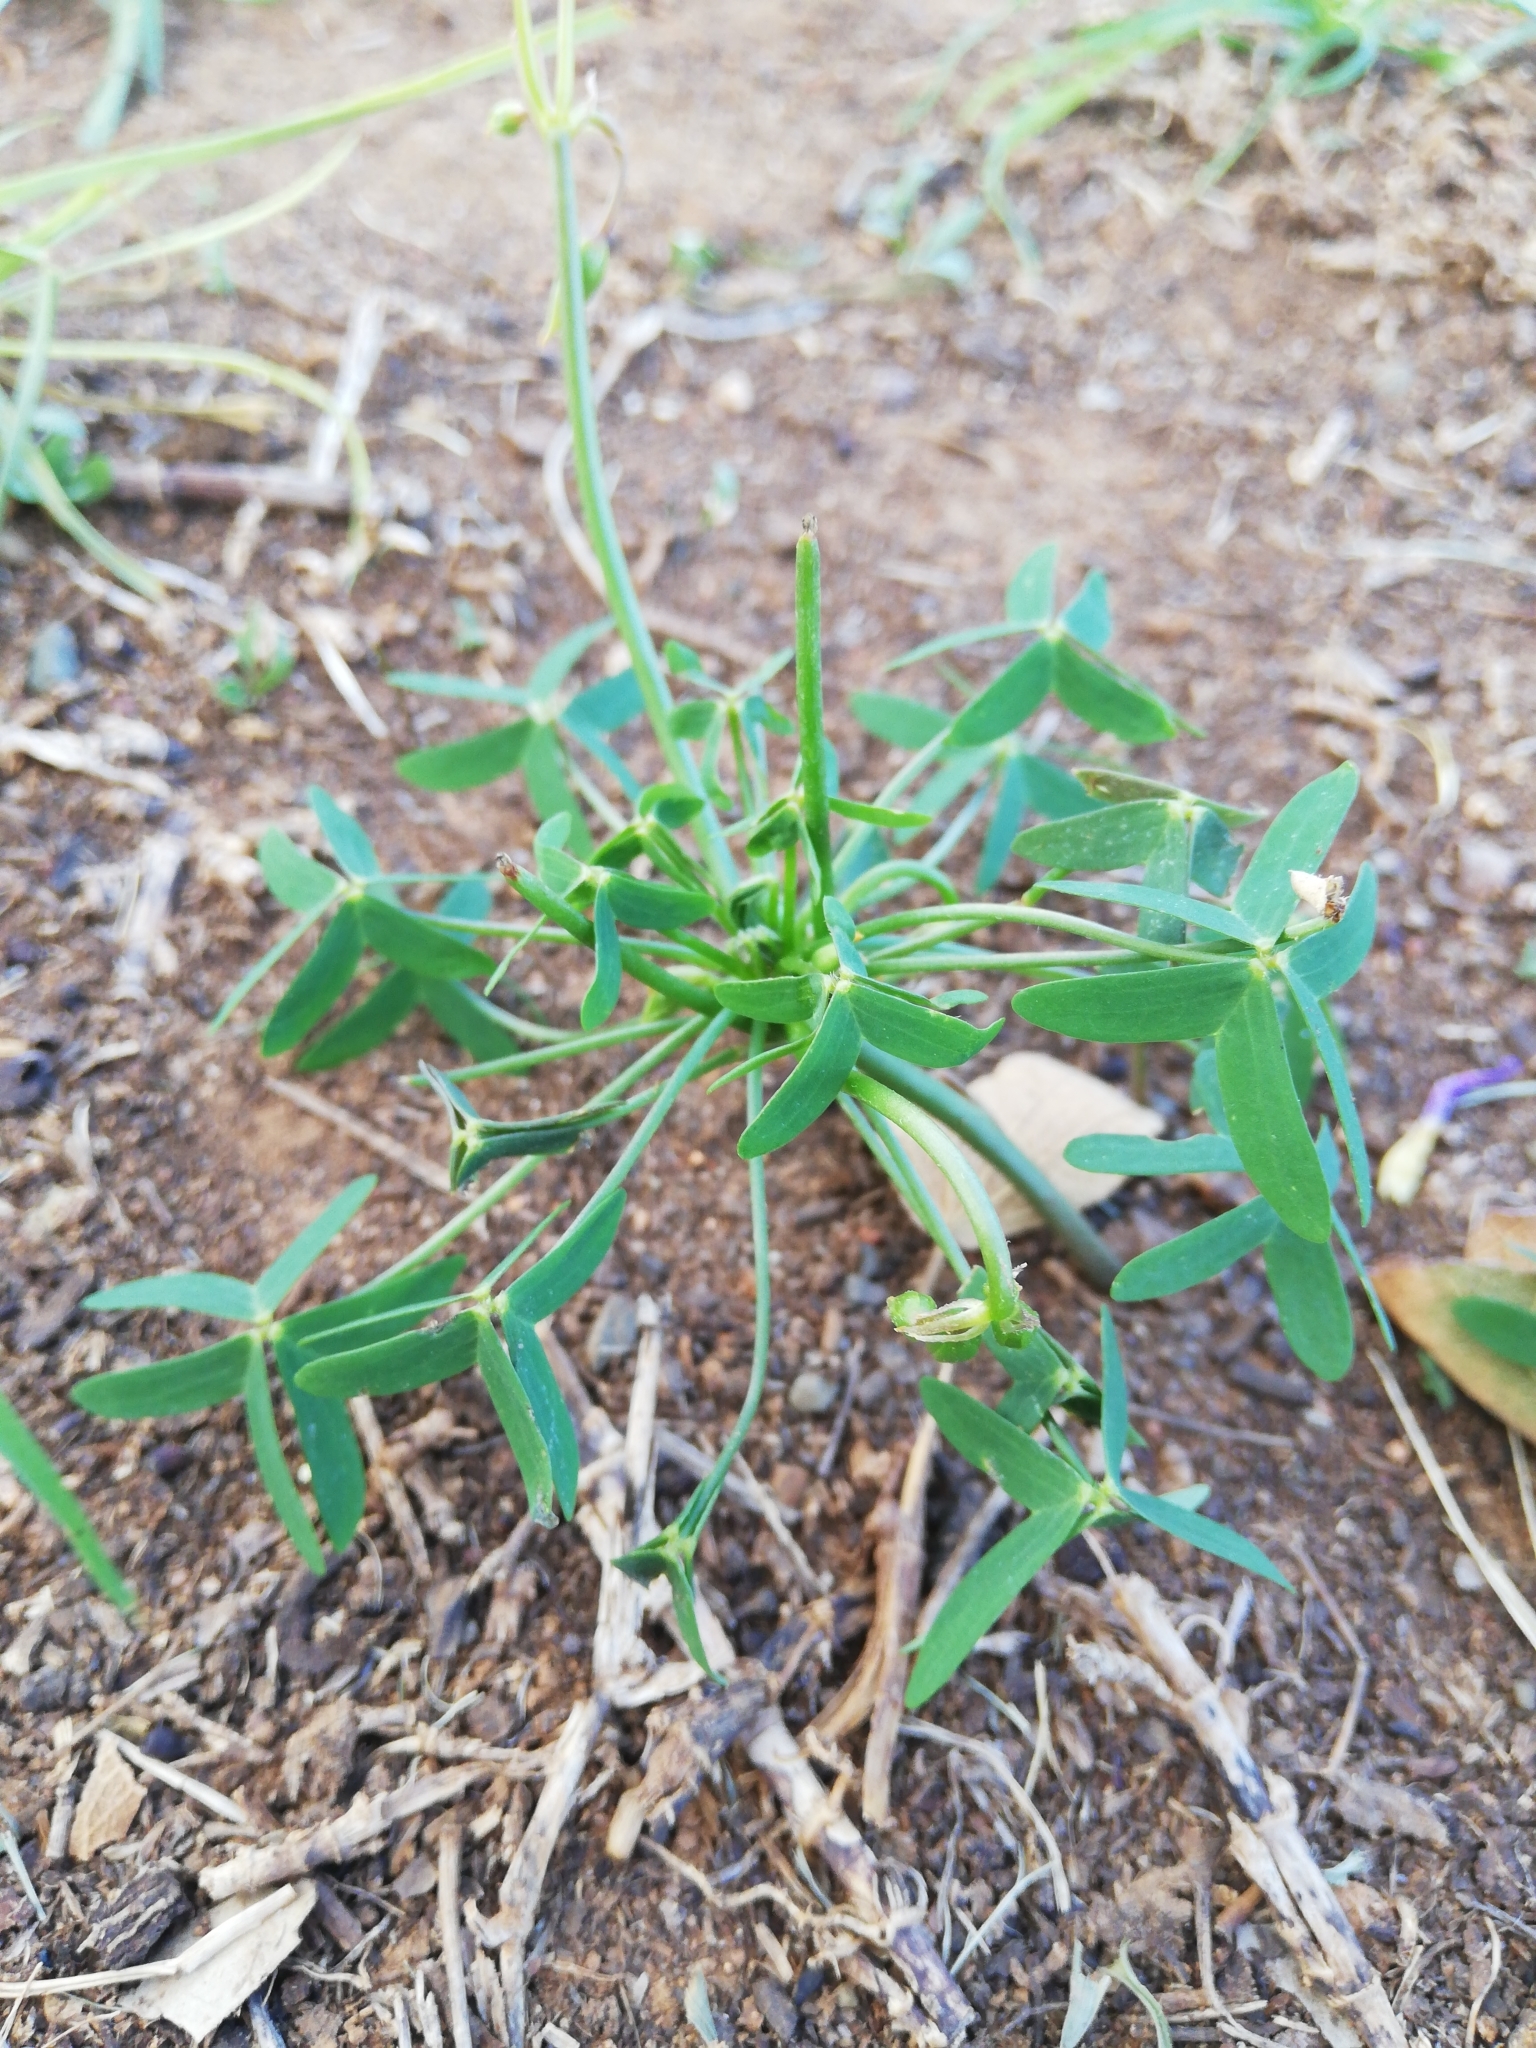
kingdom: Plantae
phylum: Tracheophyta
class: Magnoliopsida
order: Oxalidales
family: Oxalidaceae
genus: Oxalis
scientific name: Oxalis stellata
